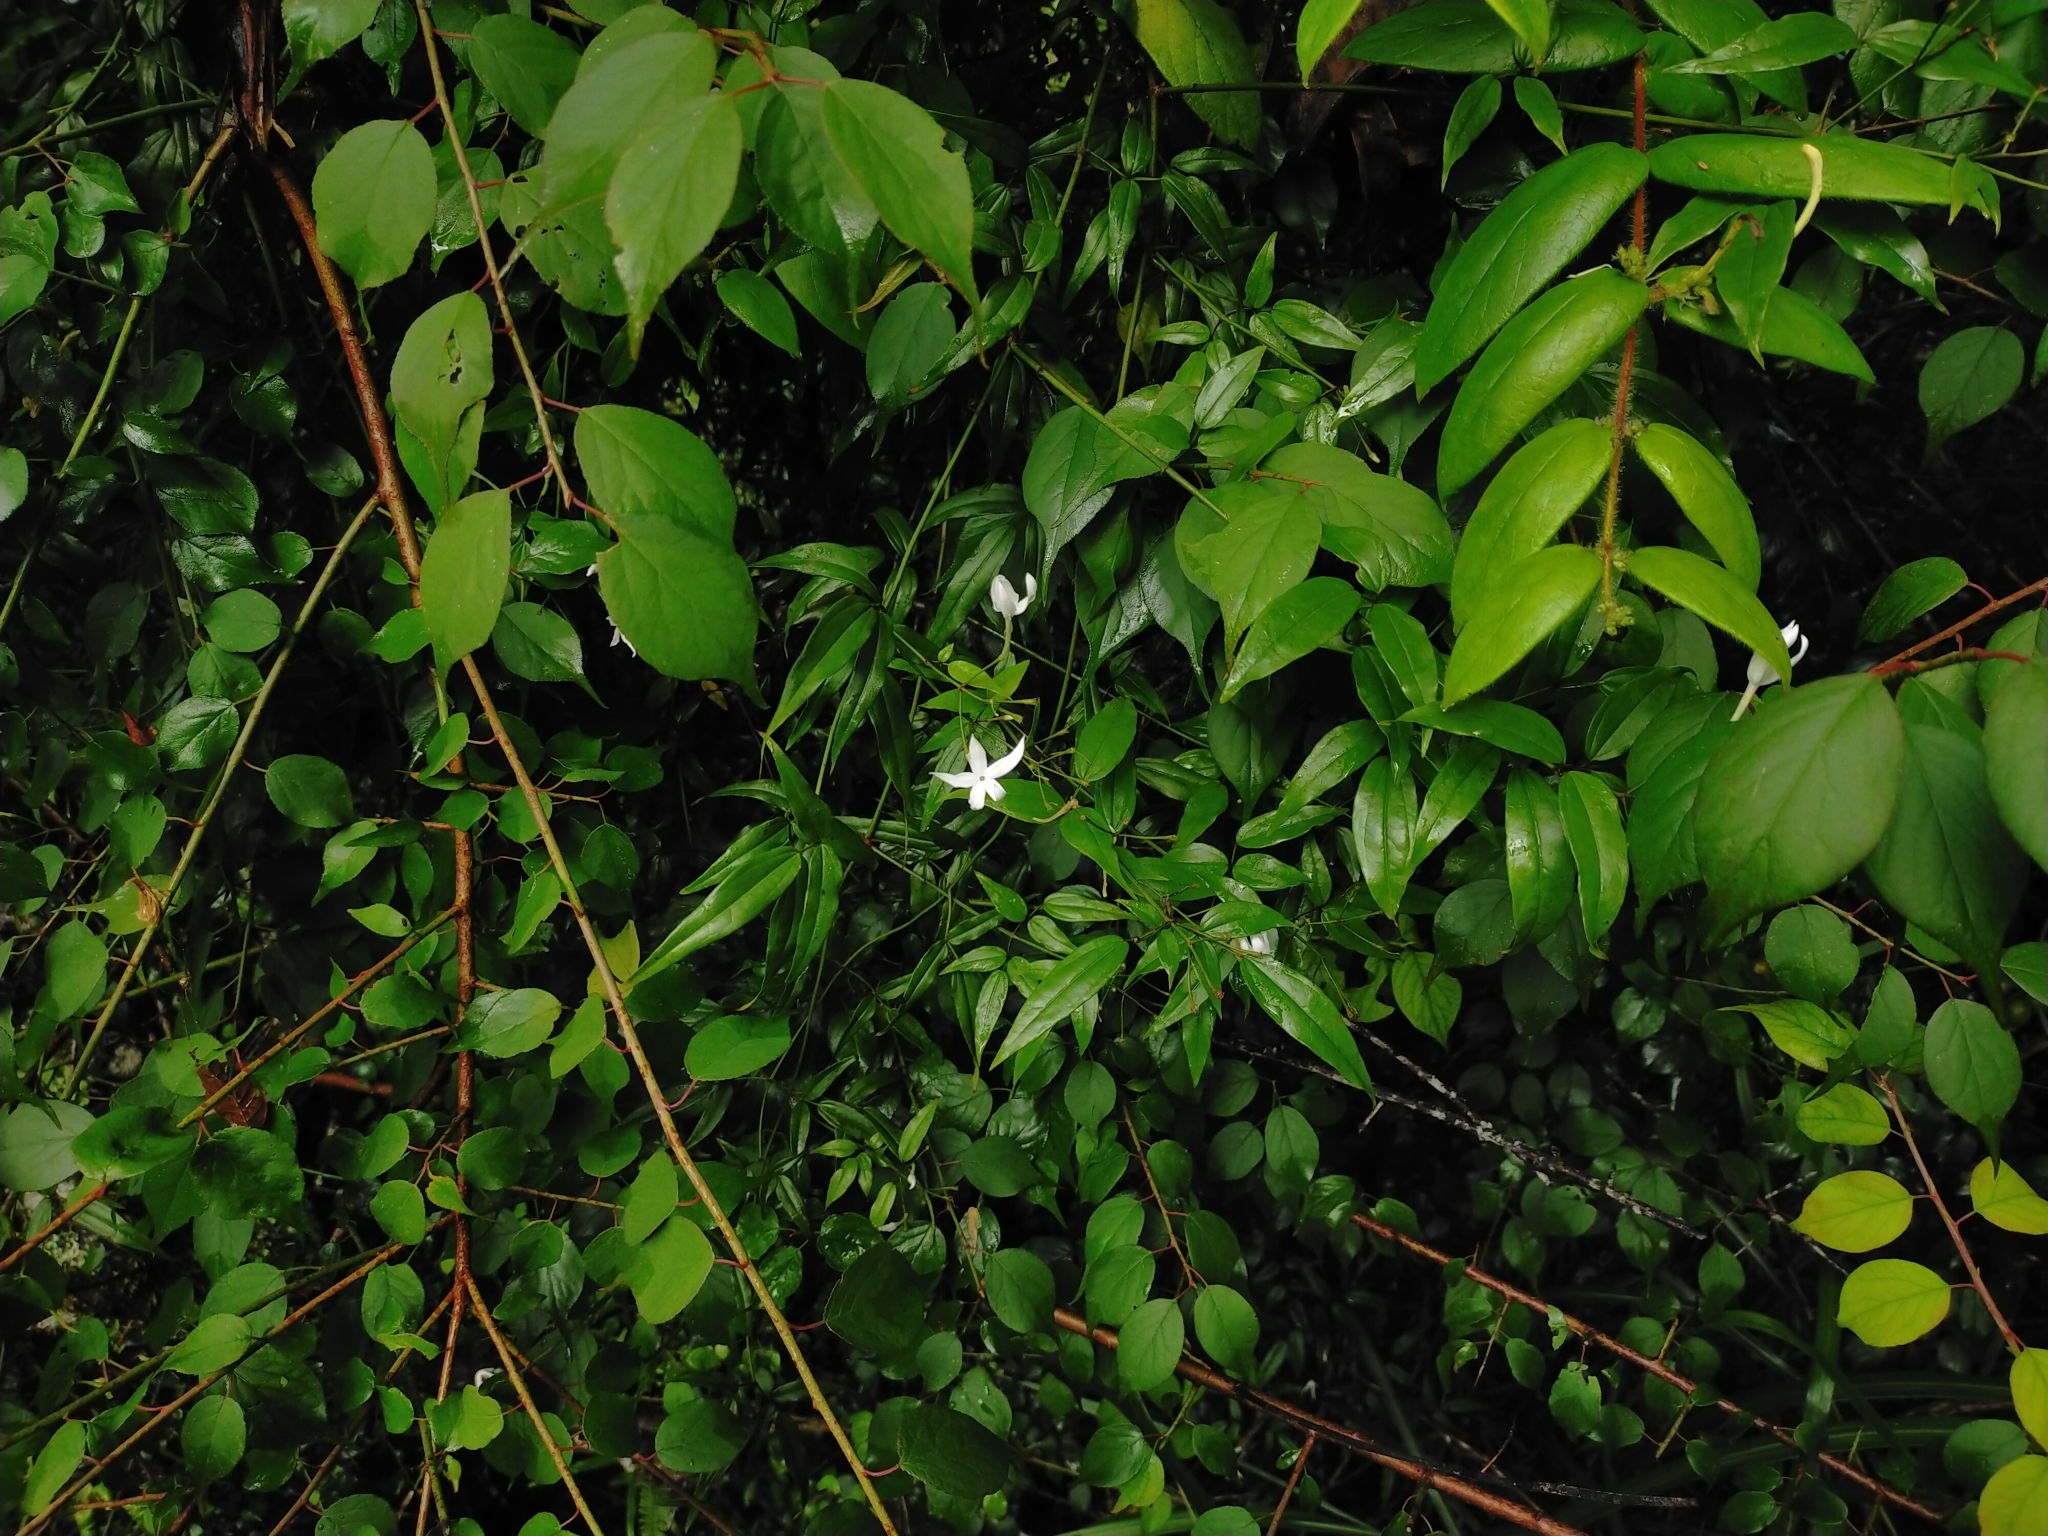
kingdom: Plantae
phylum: Tracheophyta
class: Magnoliopsida
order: Lamiales
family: Oleaceae
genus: Jasminum
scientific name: Jasminum nervosum
